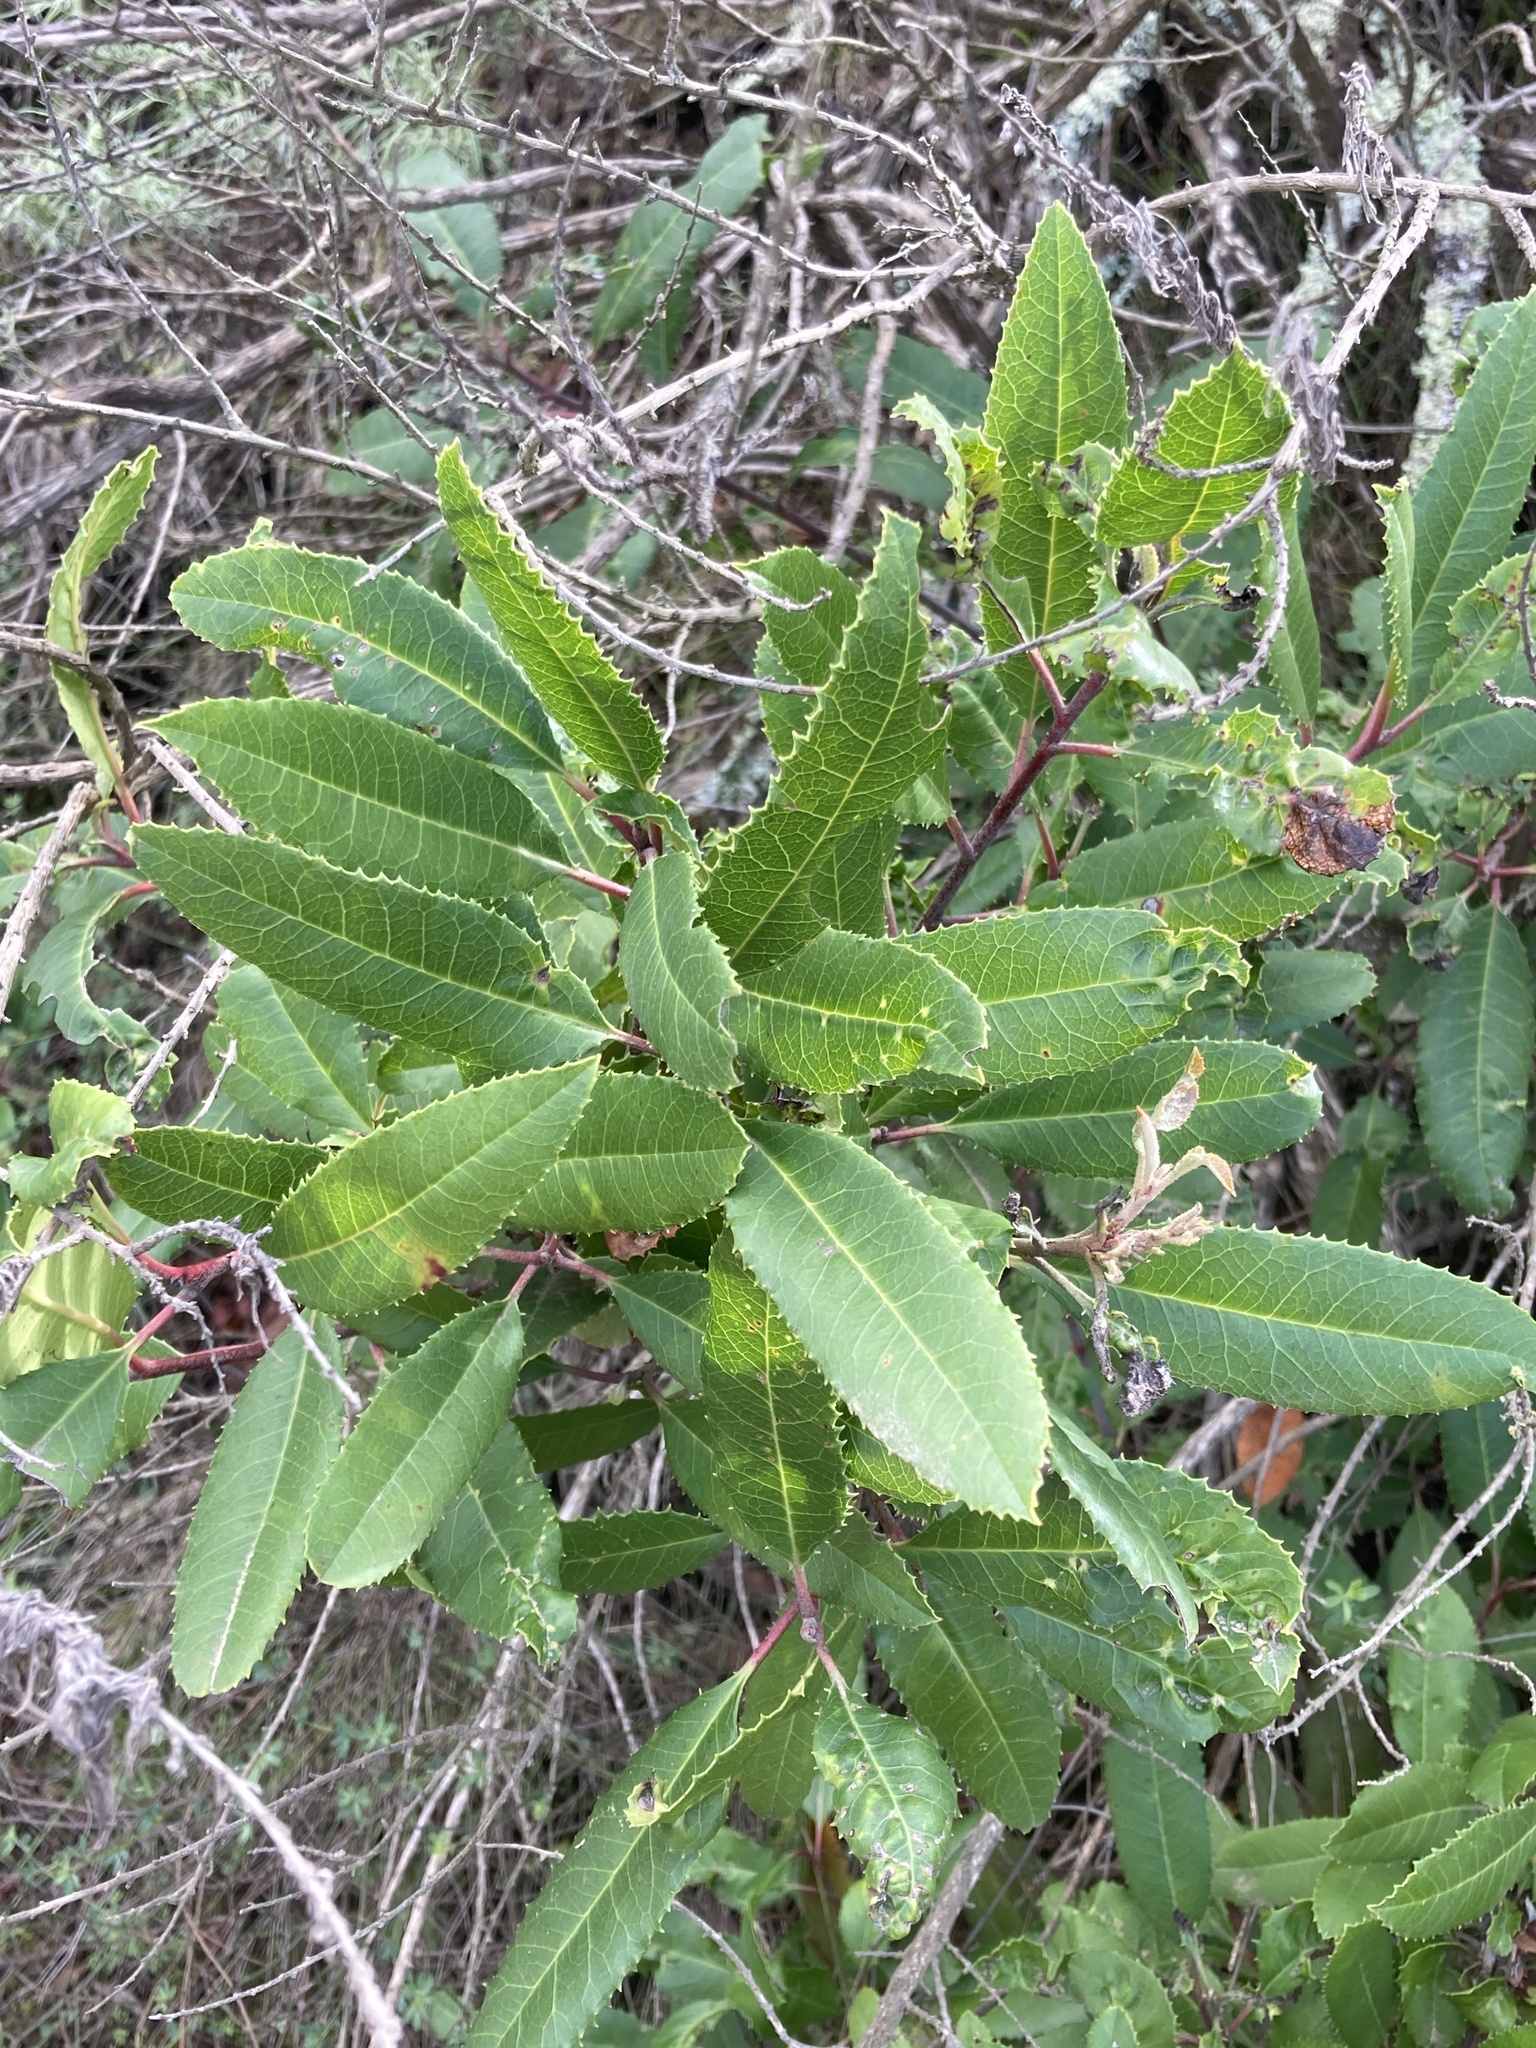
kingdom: Plantae
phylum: Tracheophyta
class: Magnoliopsida
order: Rosales
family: Rosaceae
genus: Heteromeles
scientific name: Heteromeles arbutifolia
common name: California-holly
